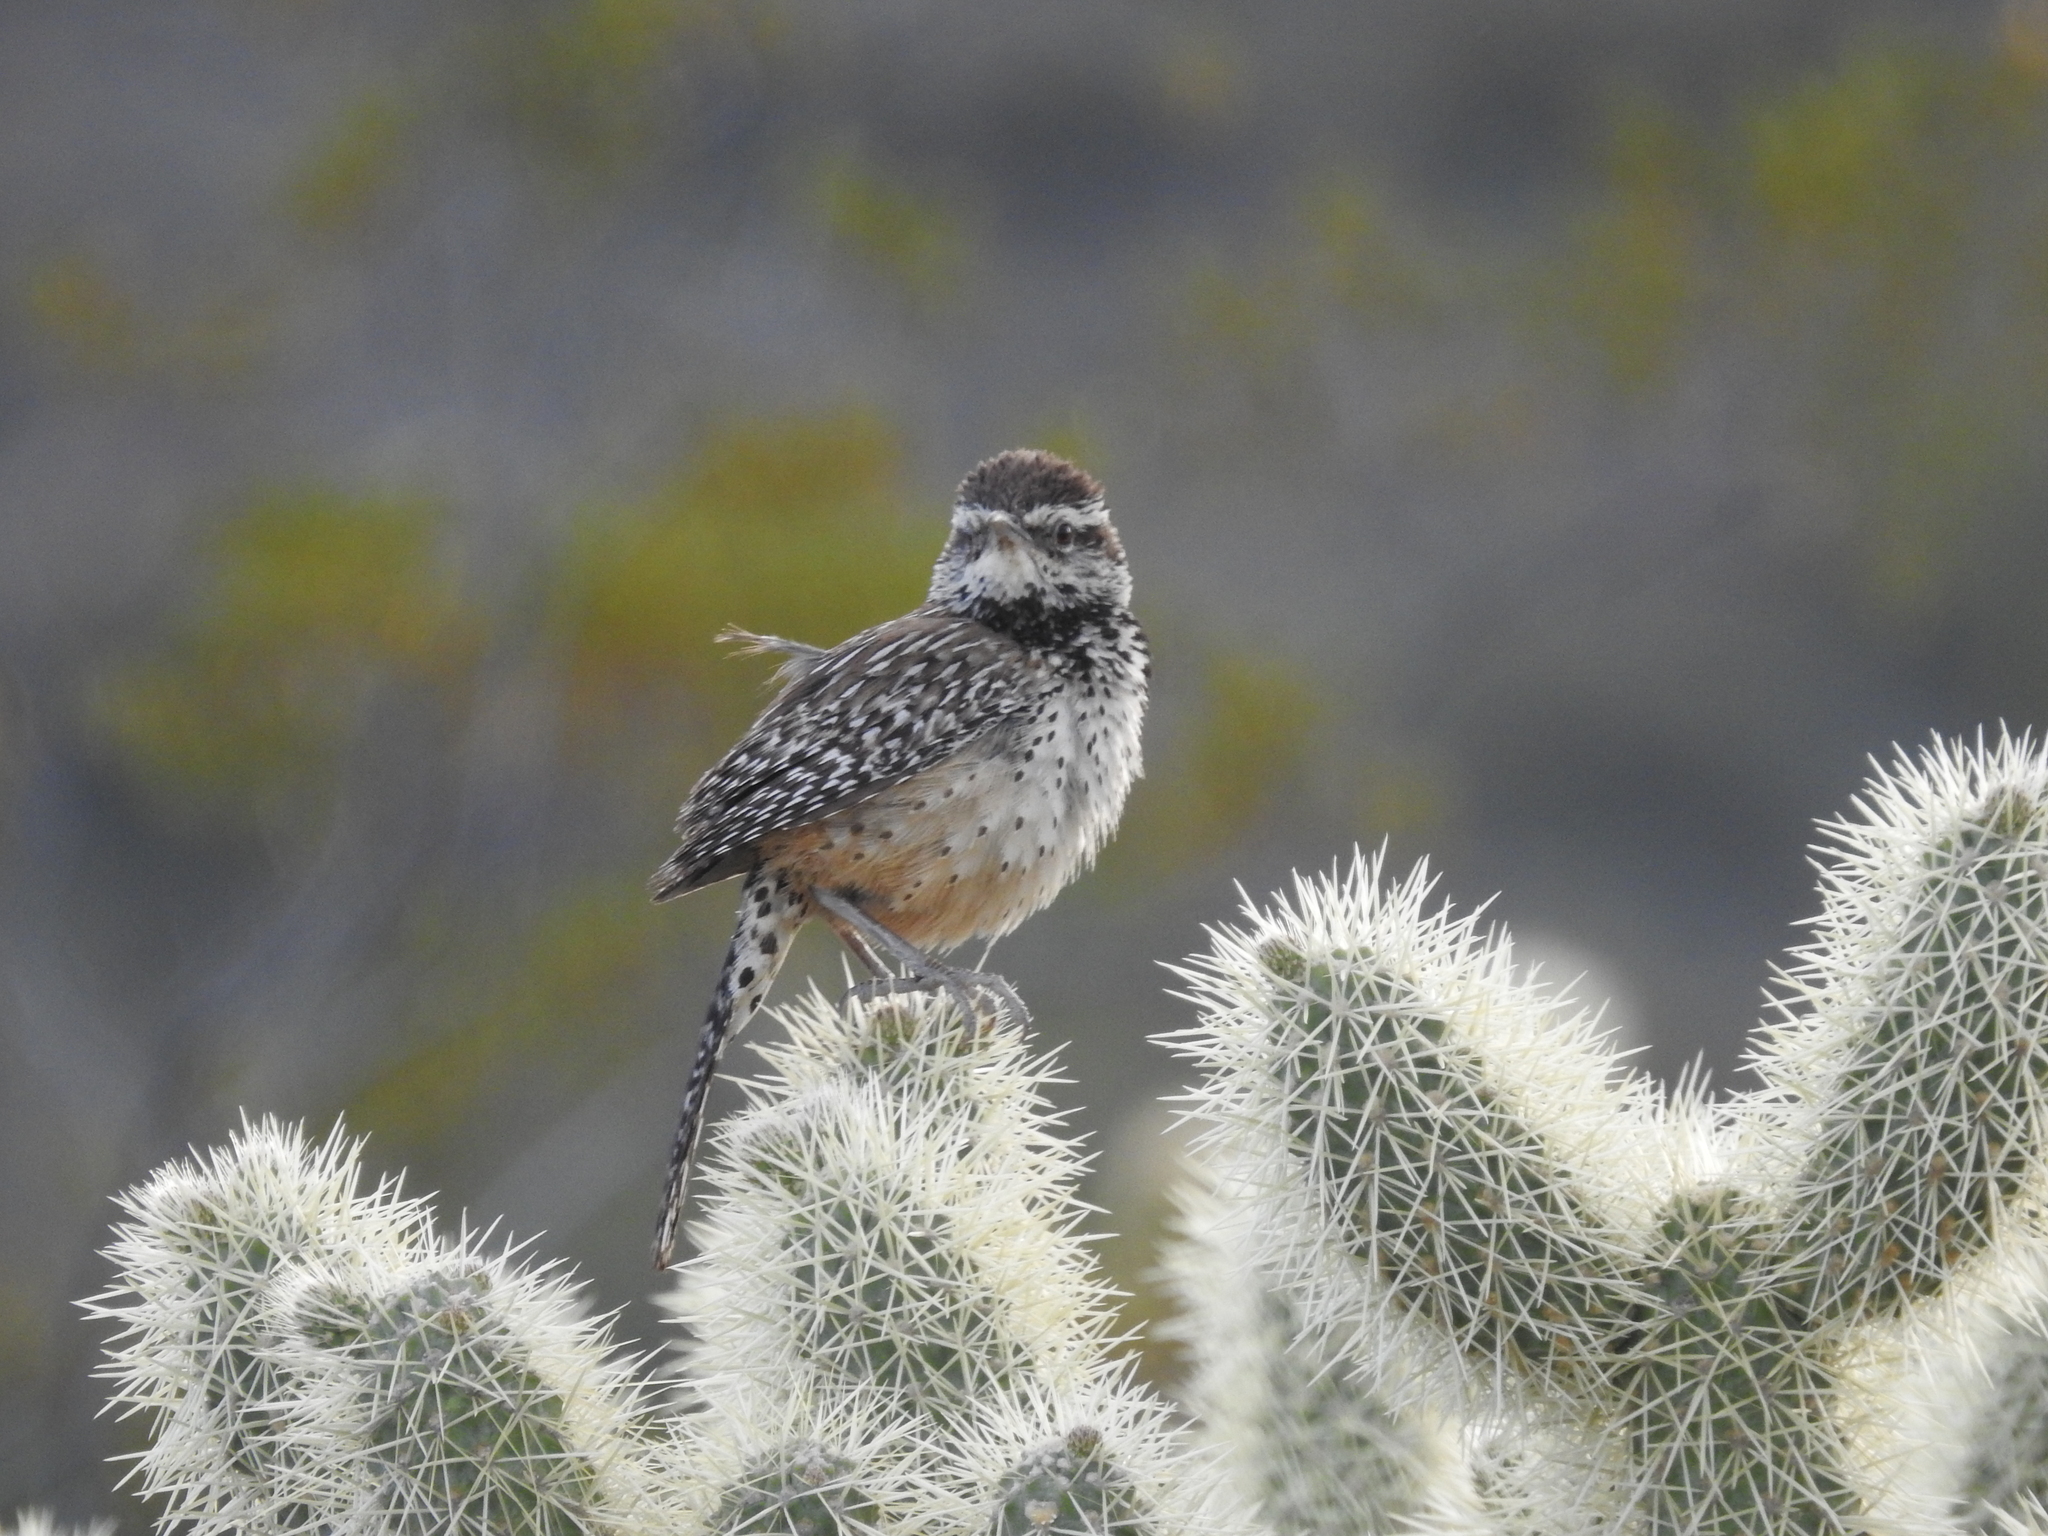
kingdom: Animalia
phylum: Chordata
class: Aves
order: Passeriformes
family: Troglodytidae
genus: Campylorhynchus
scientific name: Campylorhynchus brunneicapillus
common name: Cactus wren
